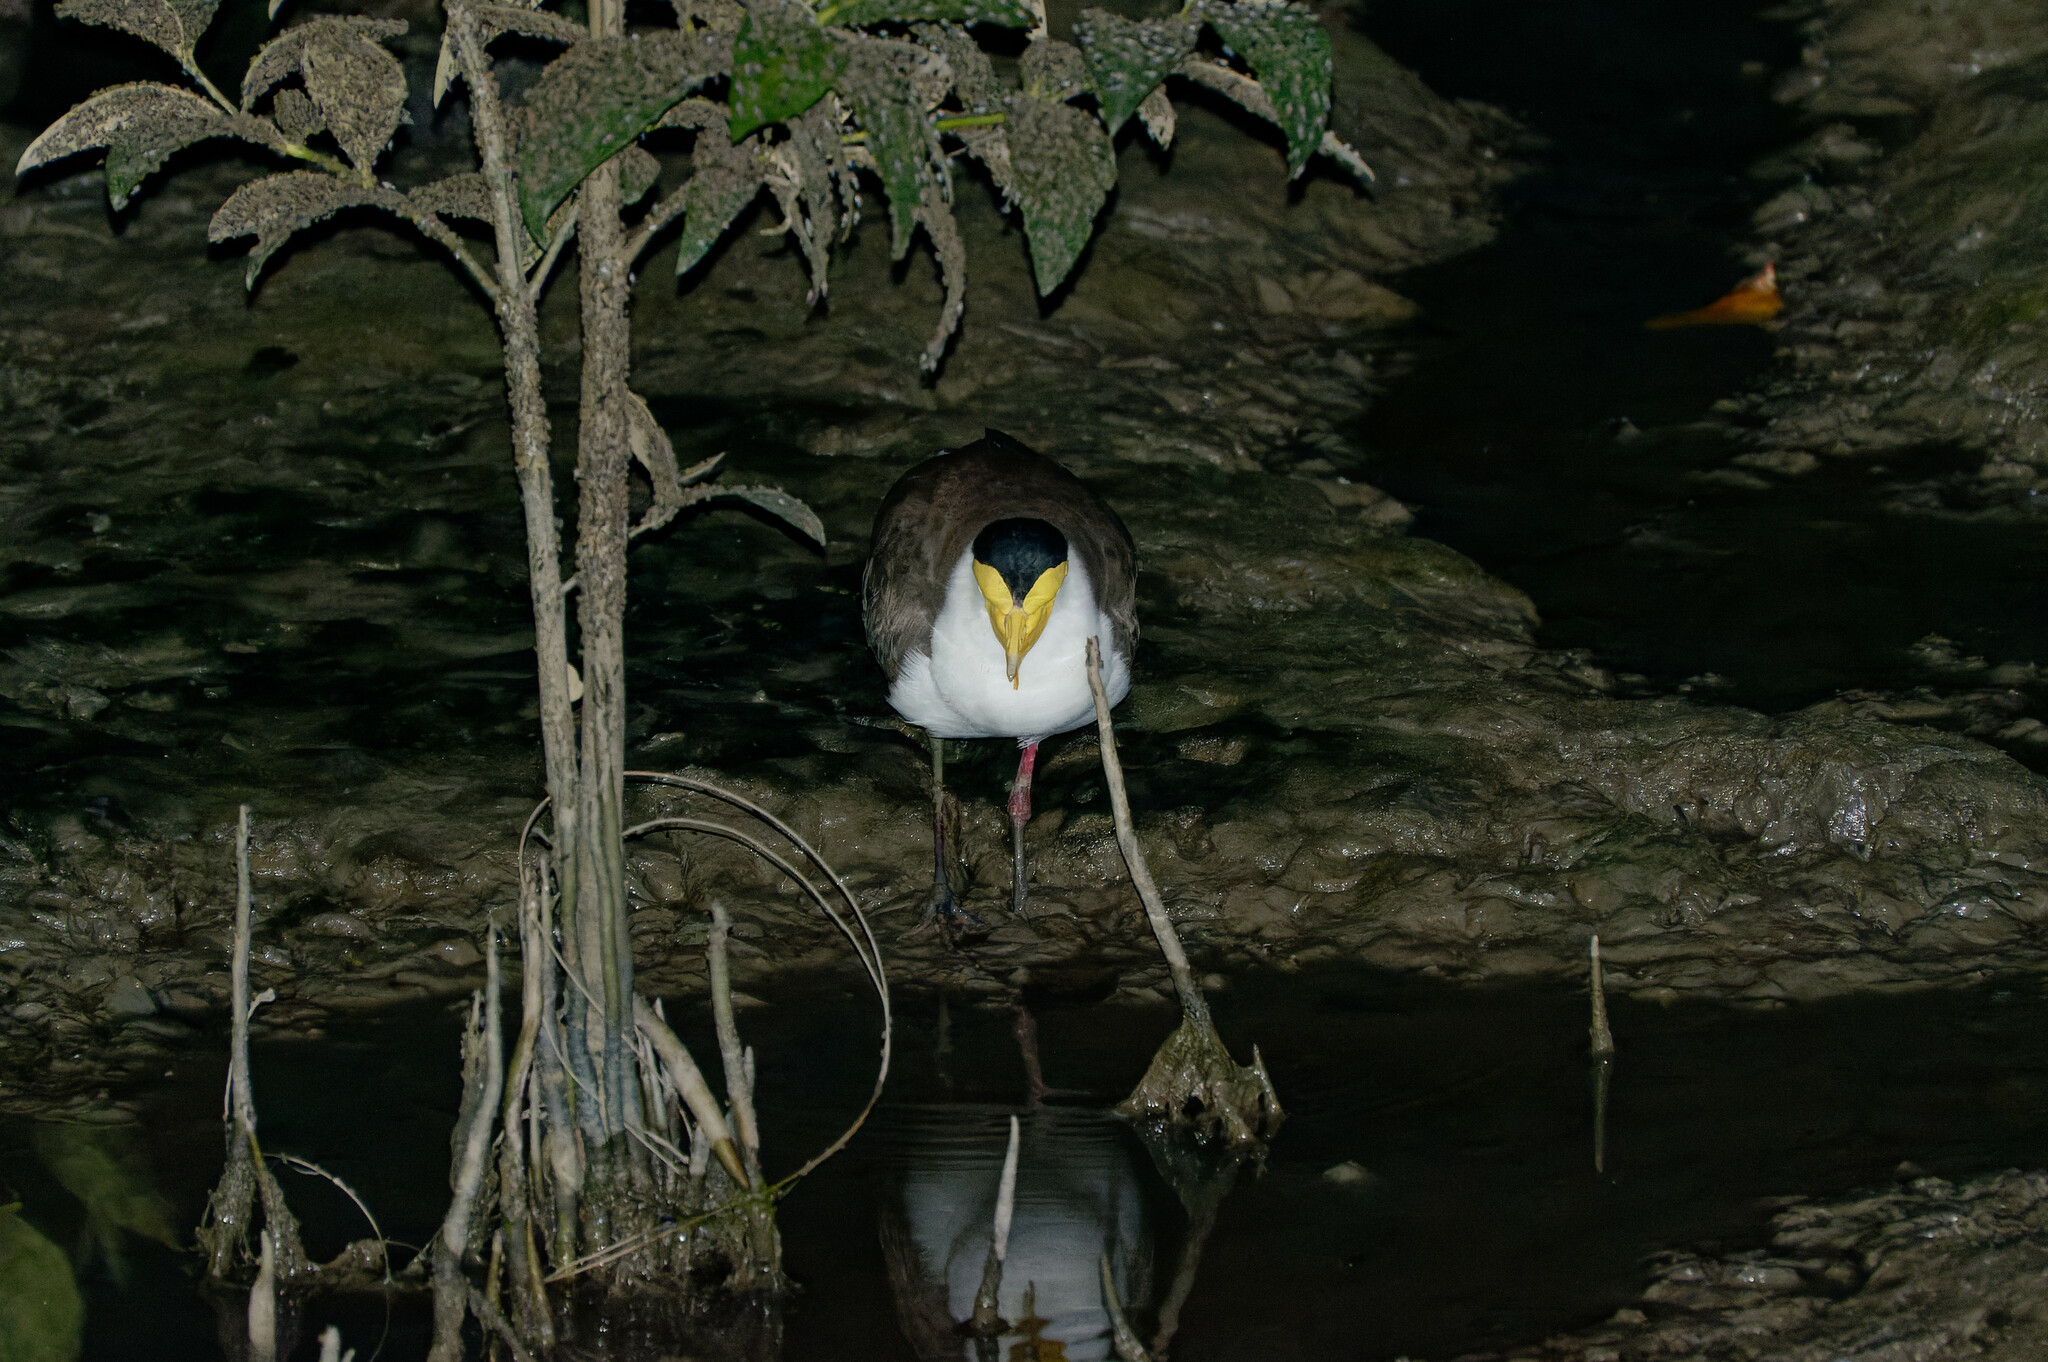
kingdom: Animalia
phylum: Chordata
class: Aves
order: Charadriiformes
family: Charadriidae
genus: Vanellus
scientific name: Vanellus miles
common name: Masked lapwing
